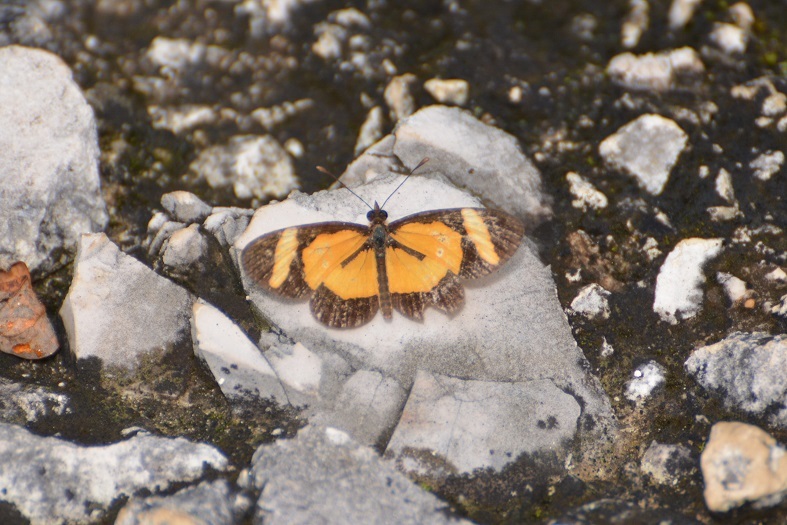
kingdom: Animalia
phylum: Arthropoda
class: Insecta
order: Lepidoptera
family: Nymphalidae
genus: Microtia
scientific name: Microtia elva
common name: Elf
